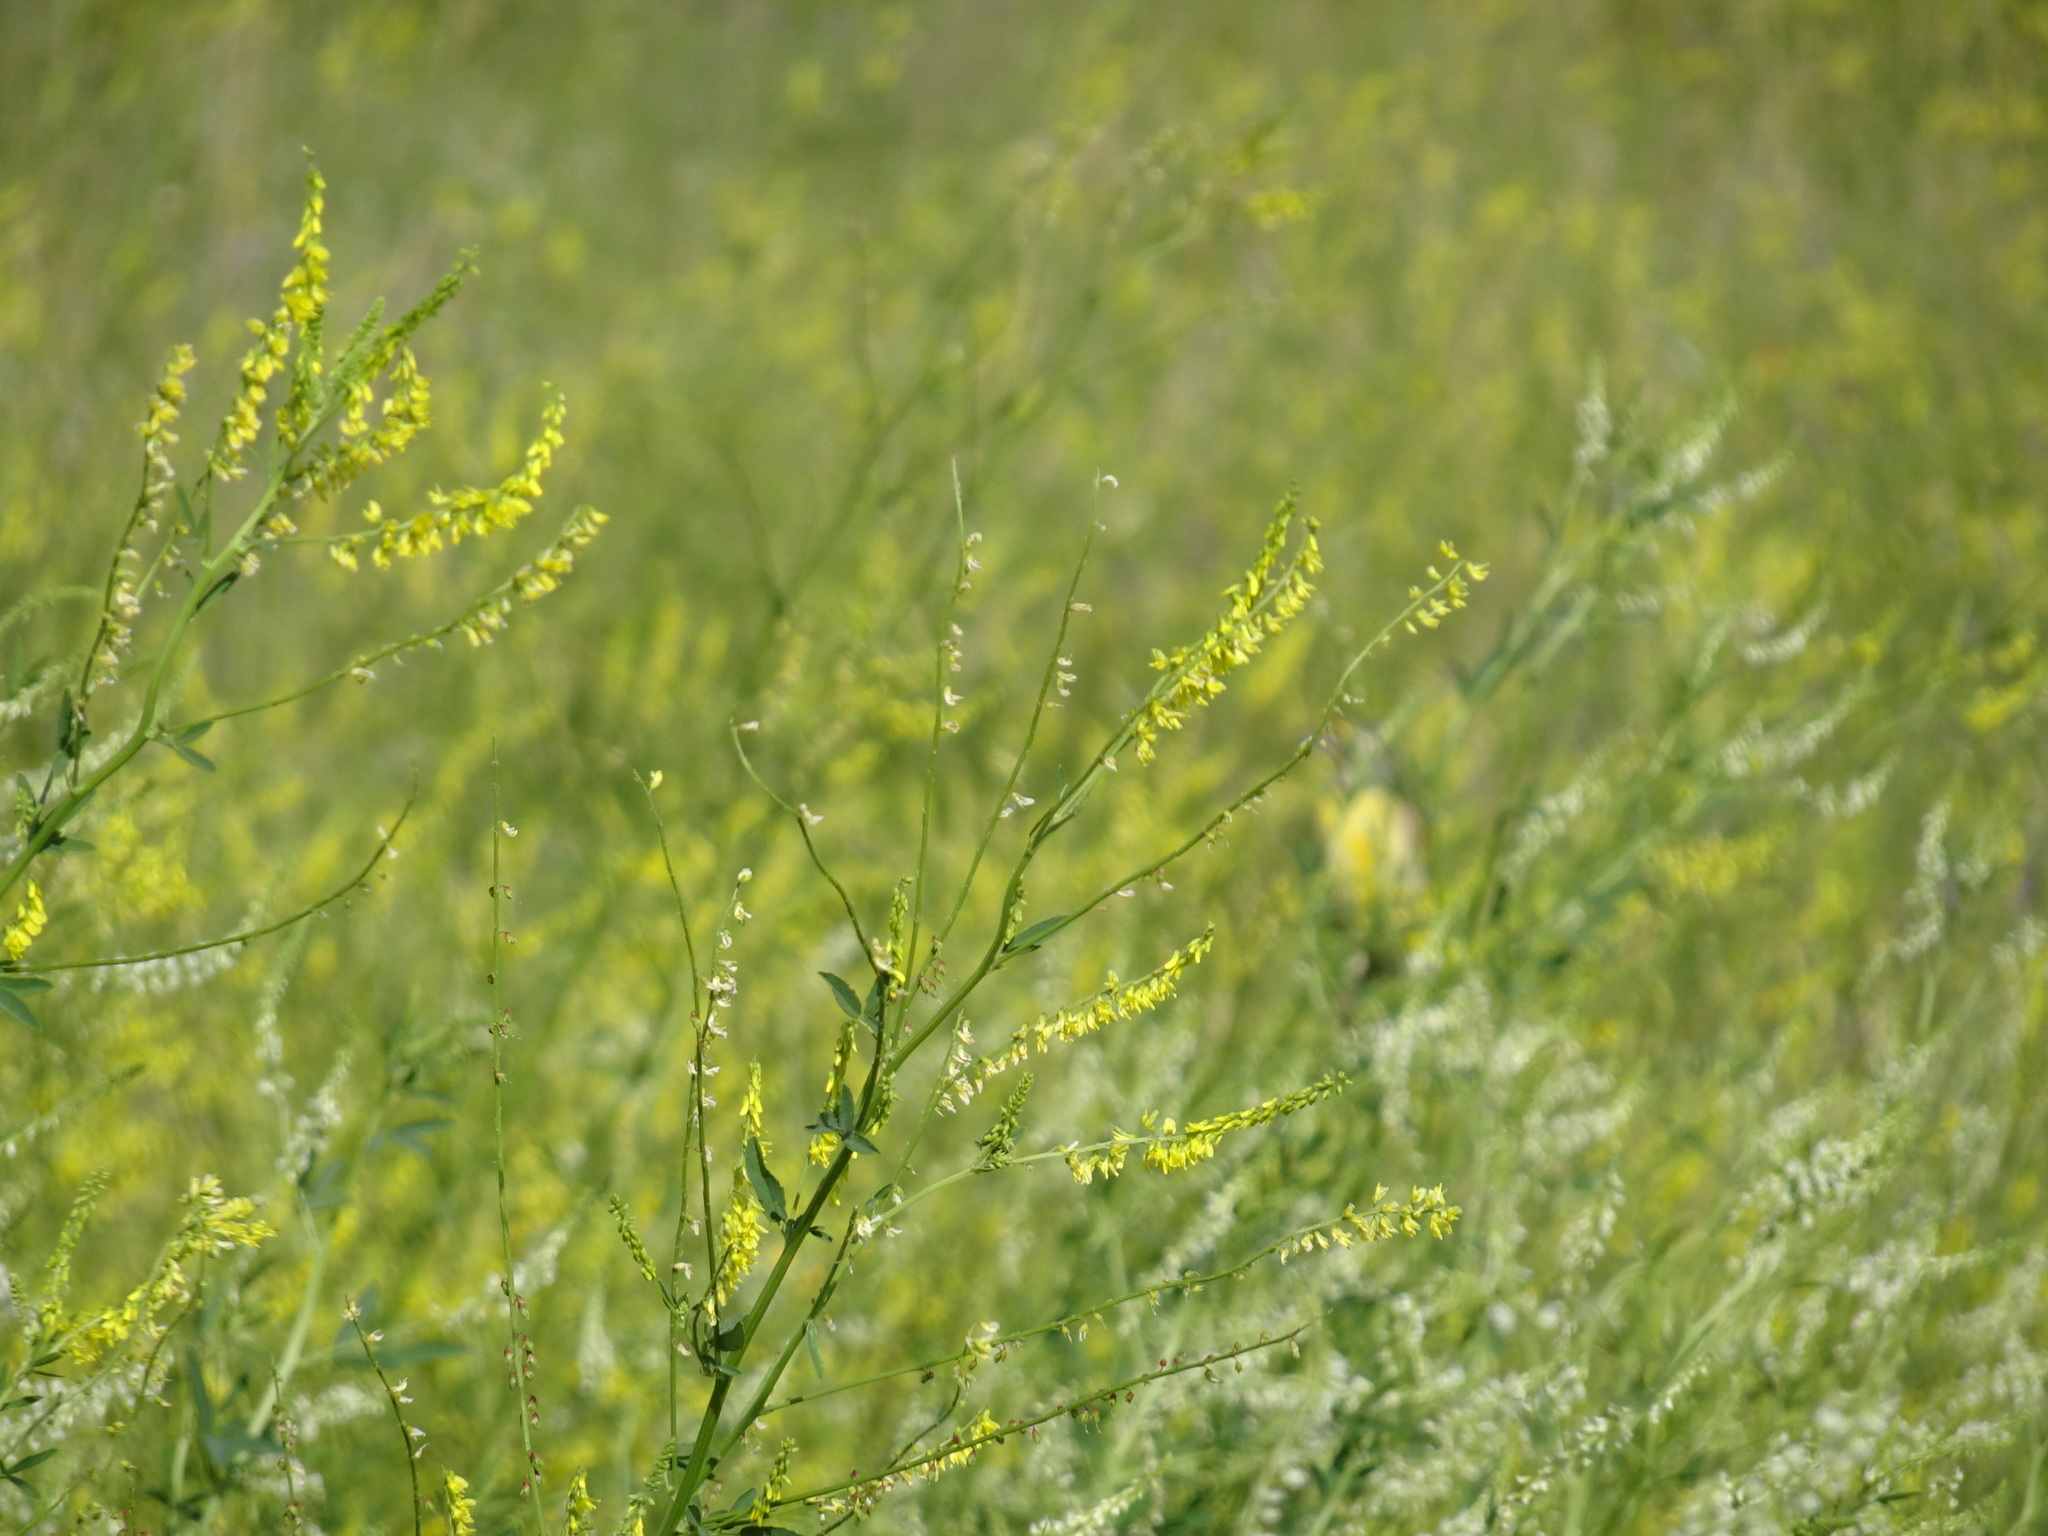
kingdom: Plantae
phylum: Tracheophyta
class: Magnoliopsida
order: Fabales
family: Fabaceae
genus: Melilotus
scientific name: Melilotus officinalis
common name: Sweetclover
